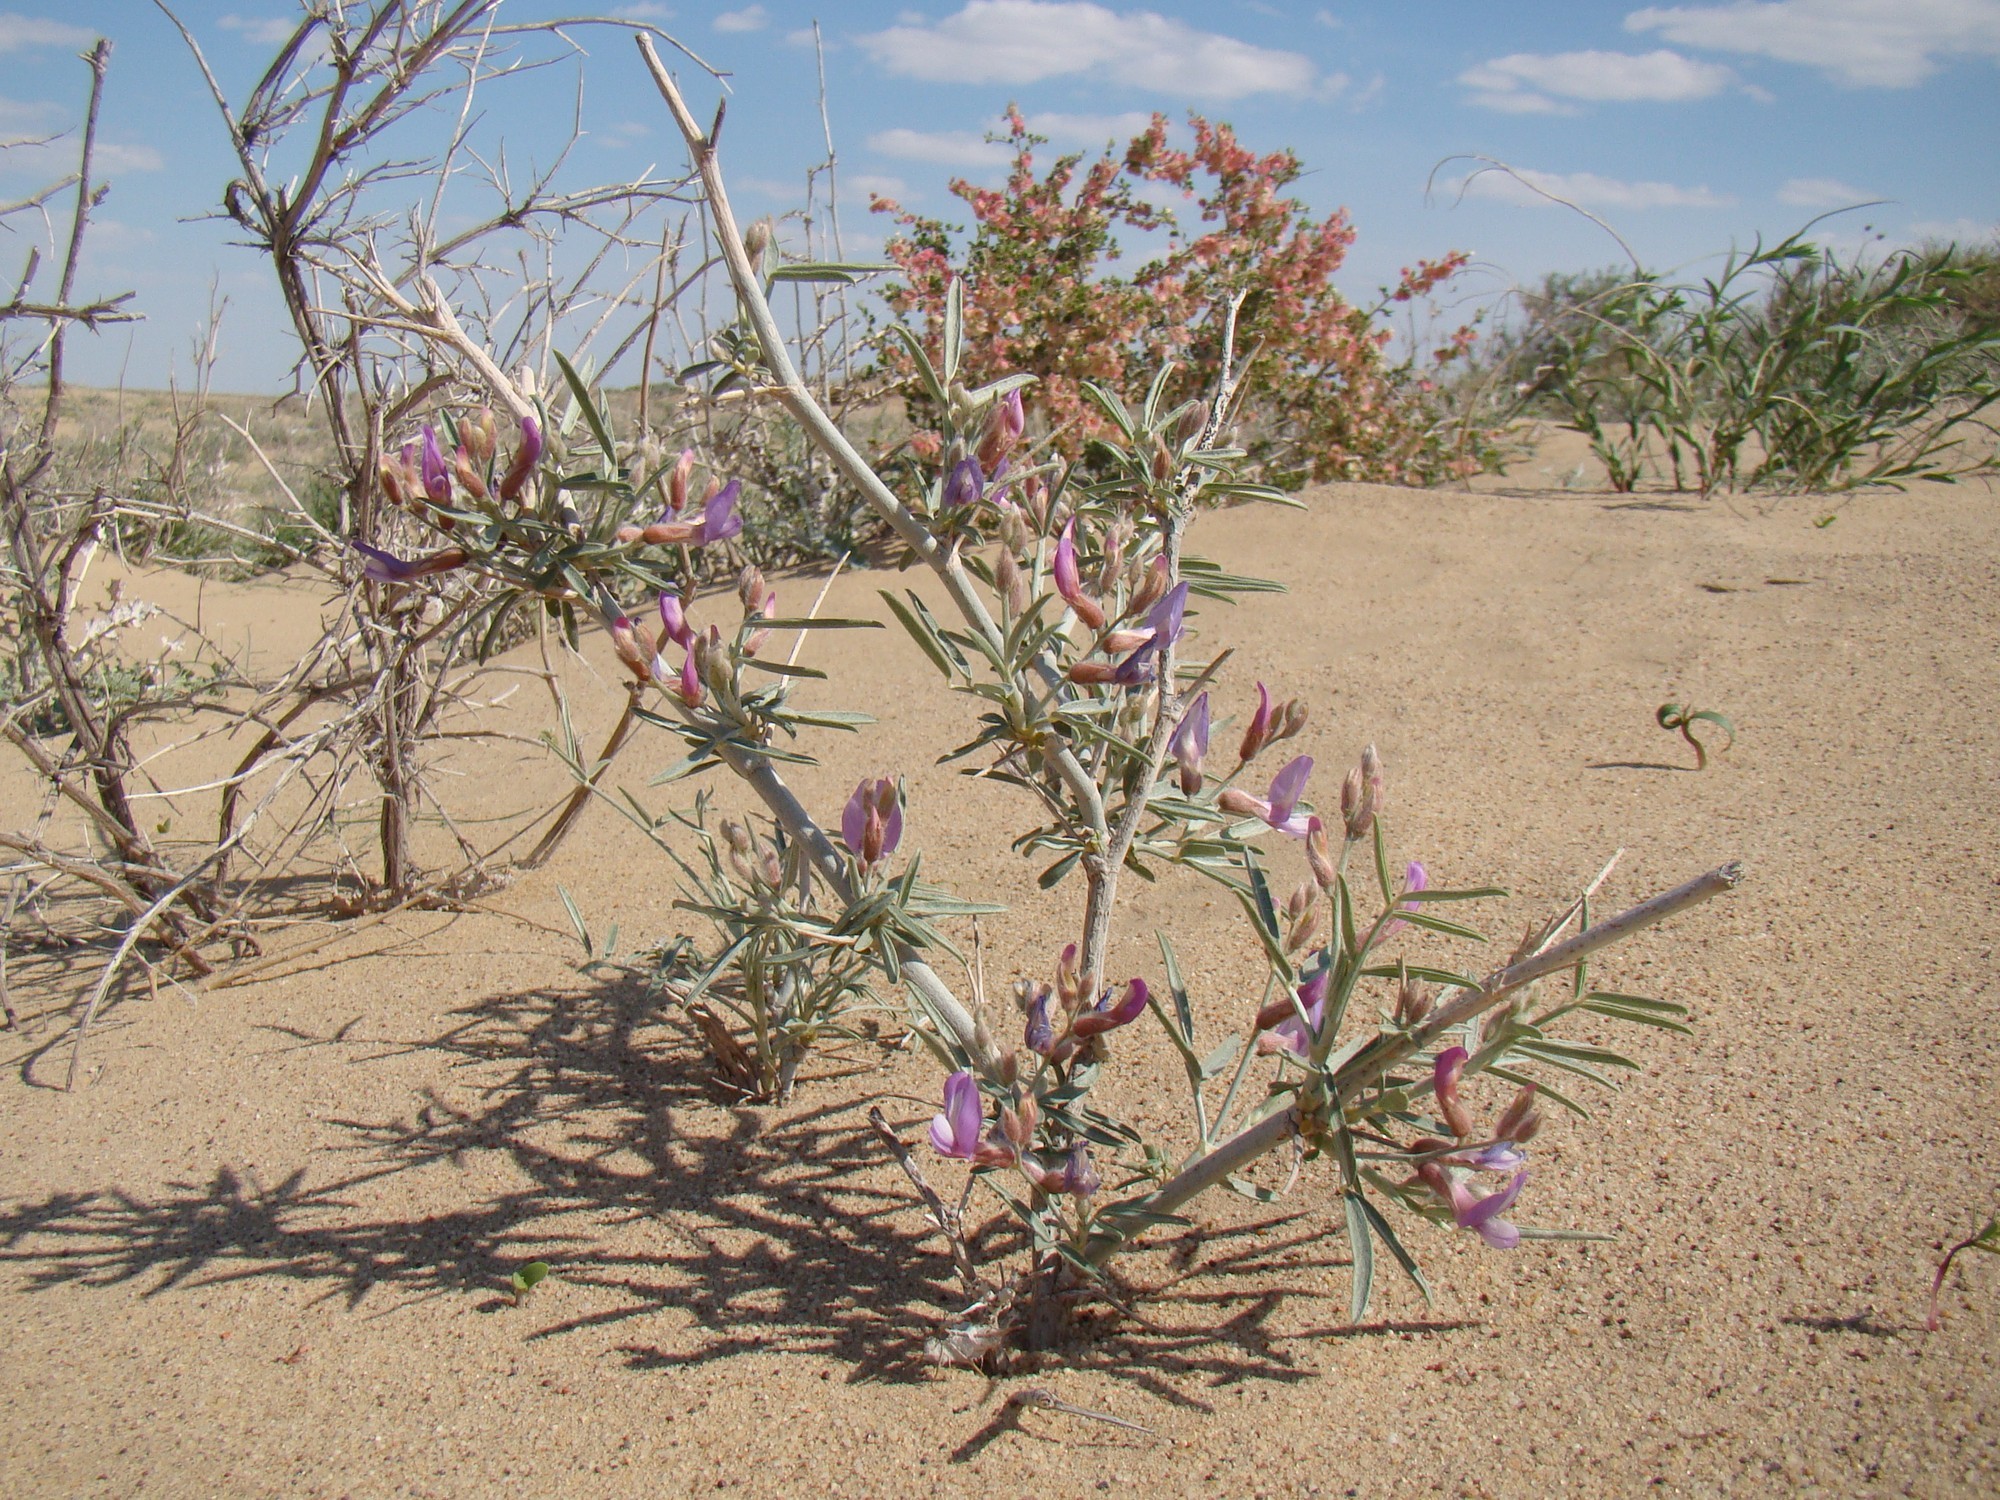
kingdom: Plantae
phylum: Tracheophyta
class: Magnoliopsida
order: Fabales
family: Fabaceae
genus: Astragalus
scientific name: Astragalus brachypus
